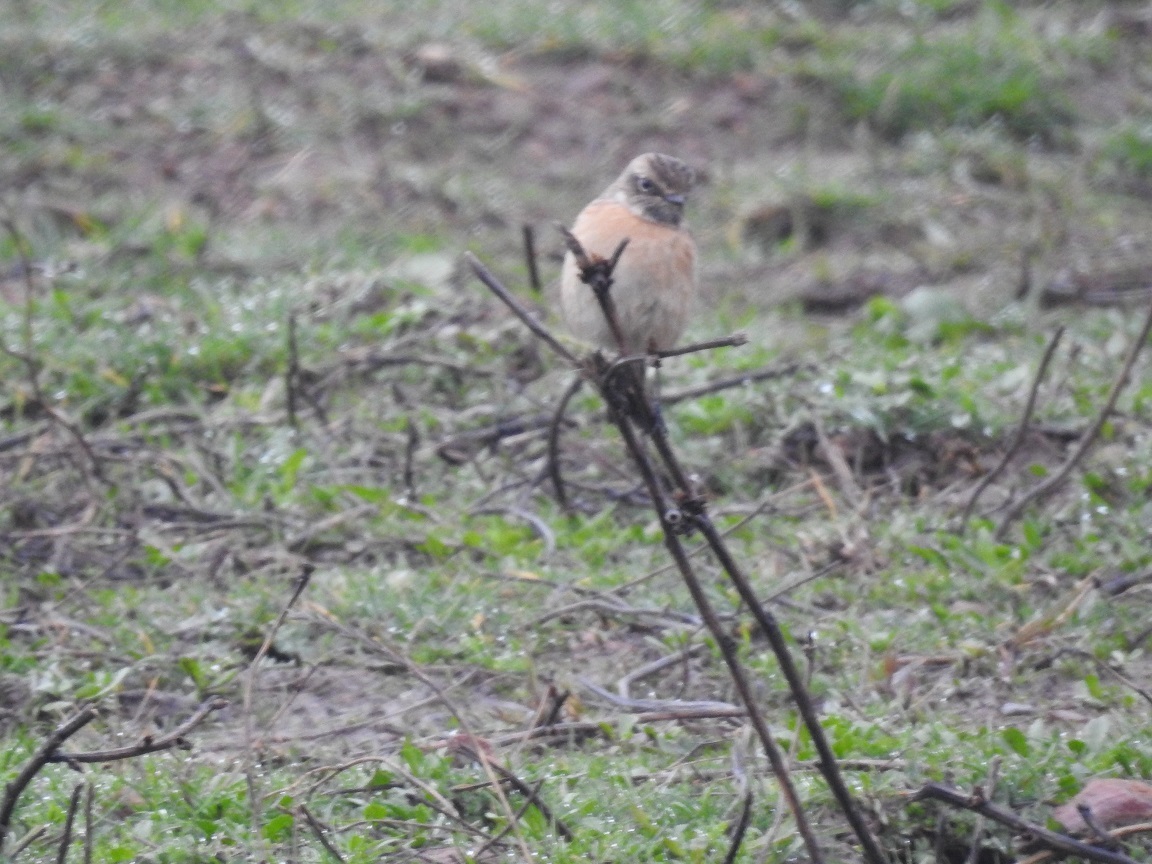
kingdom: Animalia
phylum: Chordata
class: Aves
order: Passeriformes
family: Muscicapidae
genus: Saxicola
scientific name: Saxicola rubicola
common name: European stonechat
